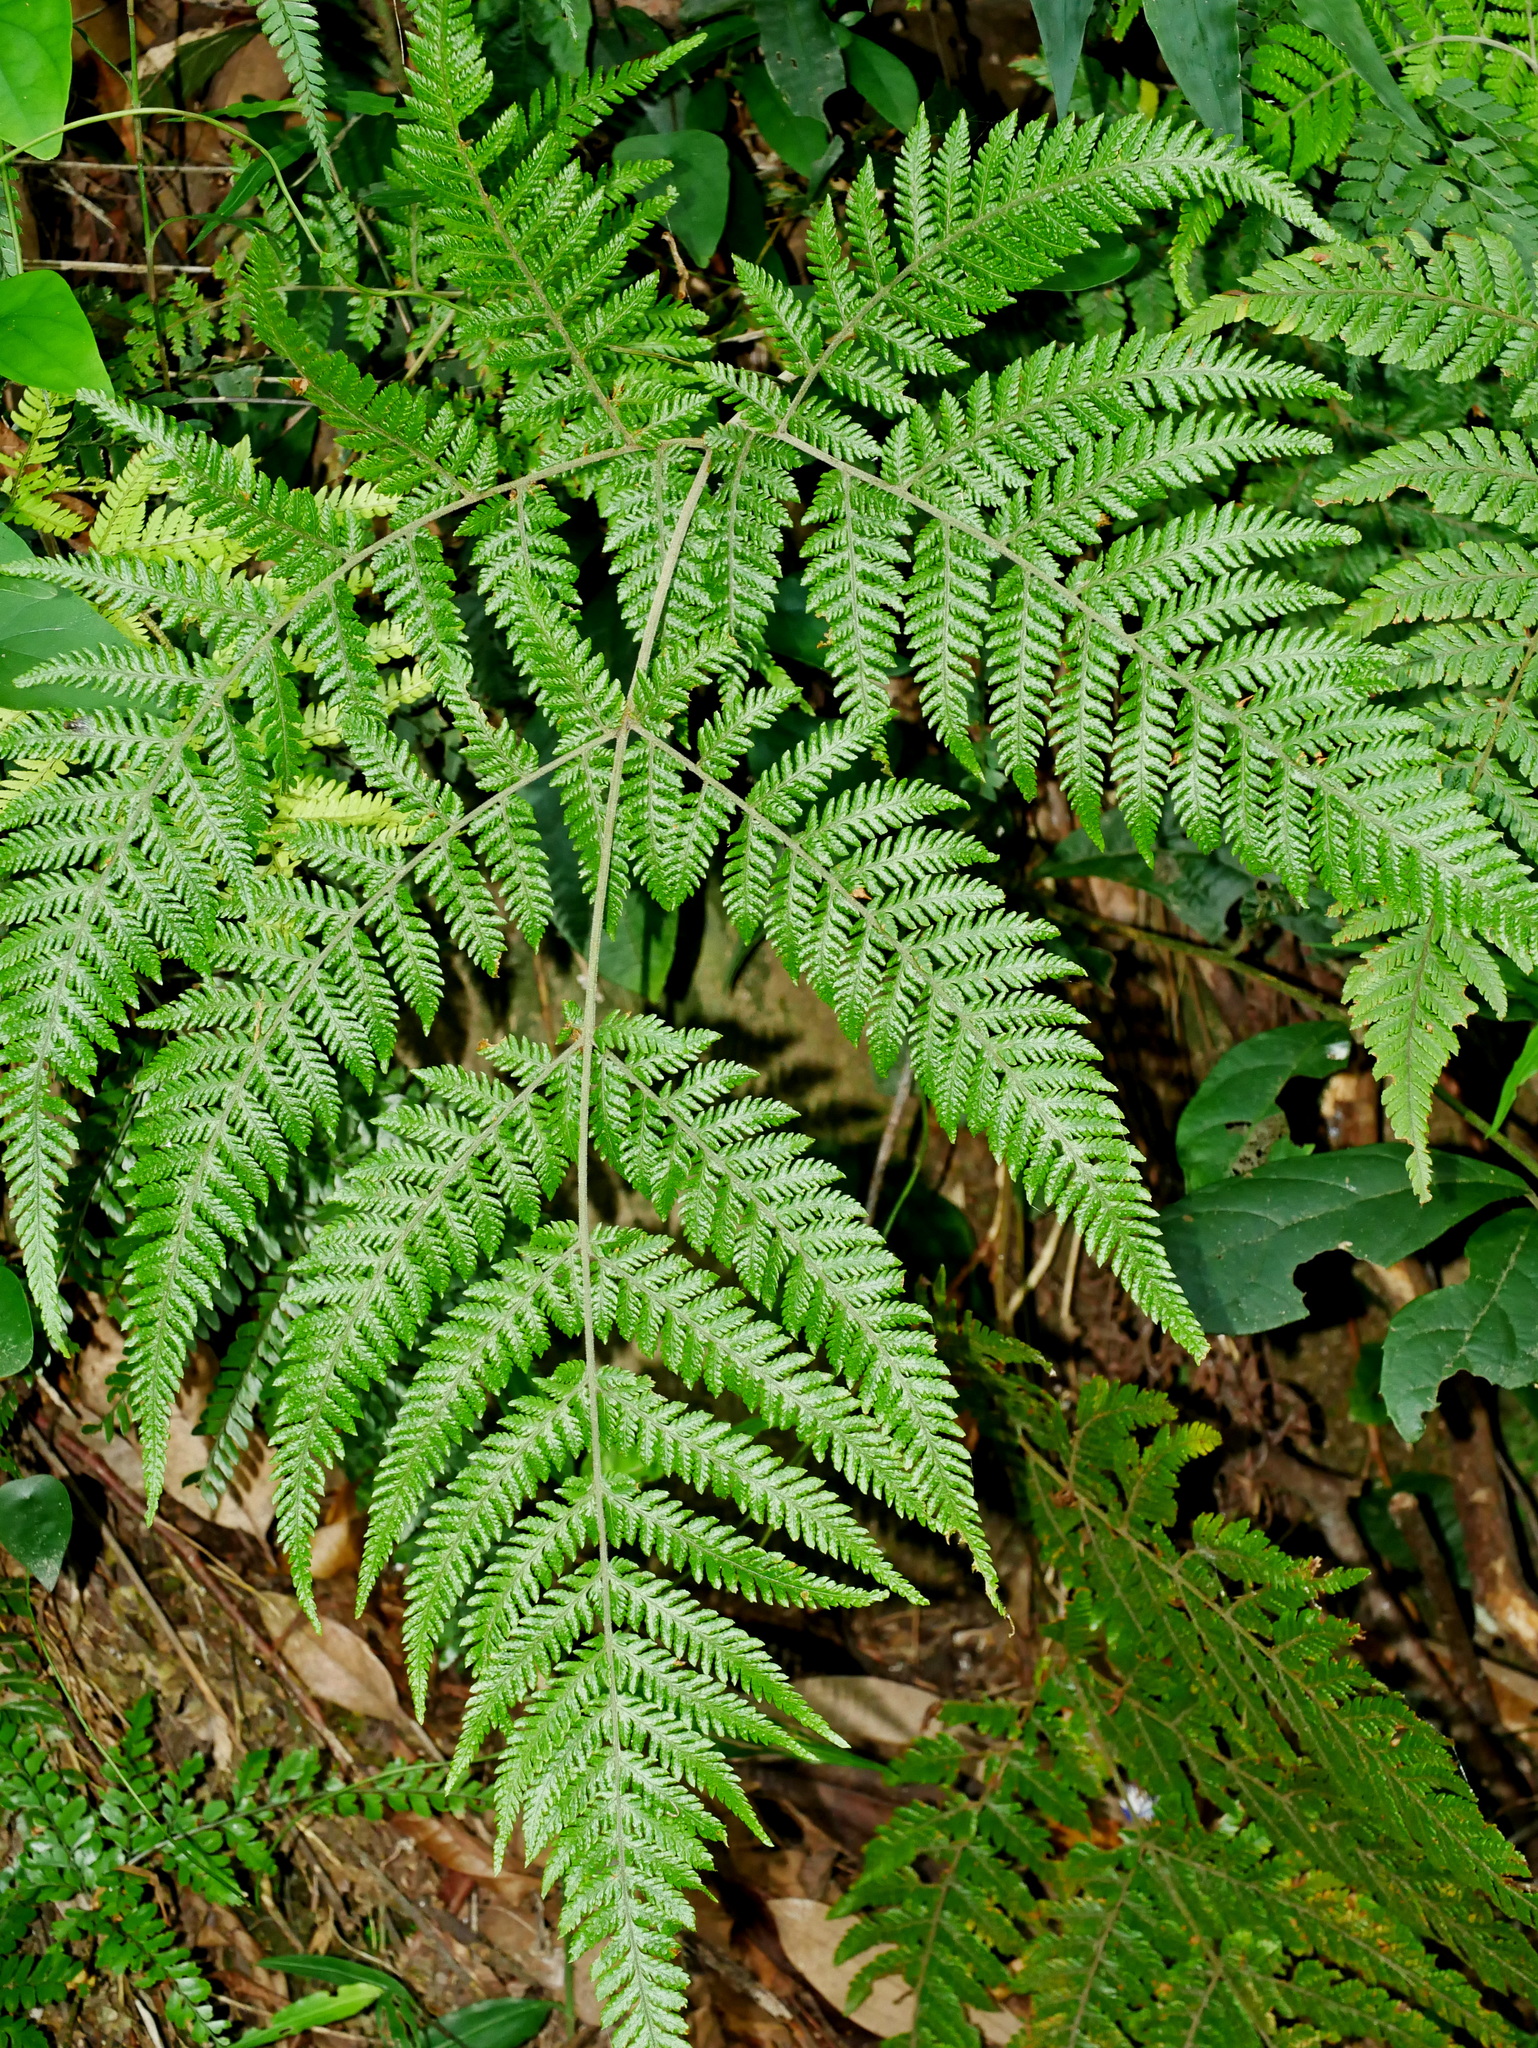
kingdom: Plantae
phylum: Tracheophyta
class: Polypodiopsida
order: Polypodiales
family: Dryopteridaceae
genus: Lastreopsis
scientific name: Lastreopsis tenera
